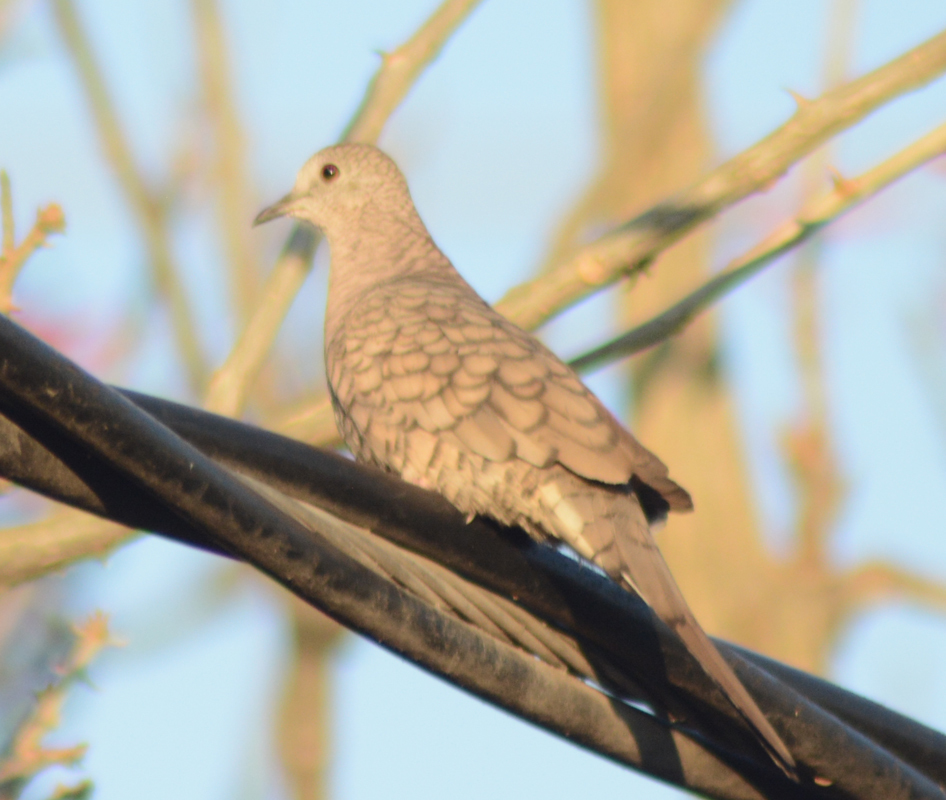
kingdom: Animalia
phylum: Chordata
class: Aves
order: Columbiformes
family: Columbidae
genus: Columbina
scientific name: Columbina inca
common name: Inca dove
